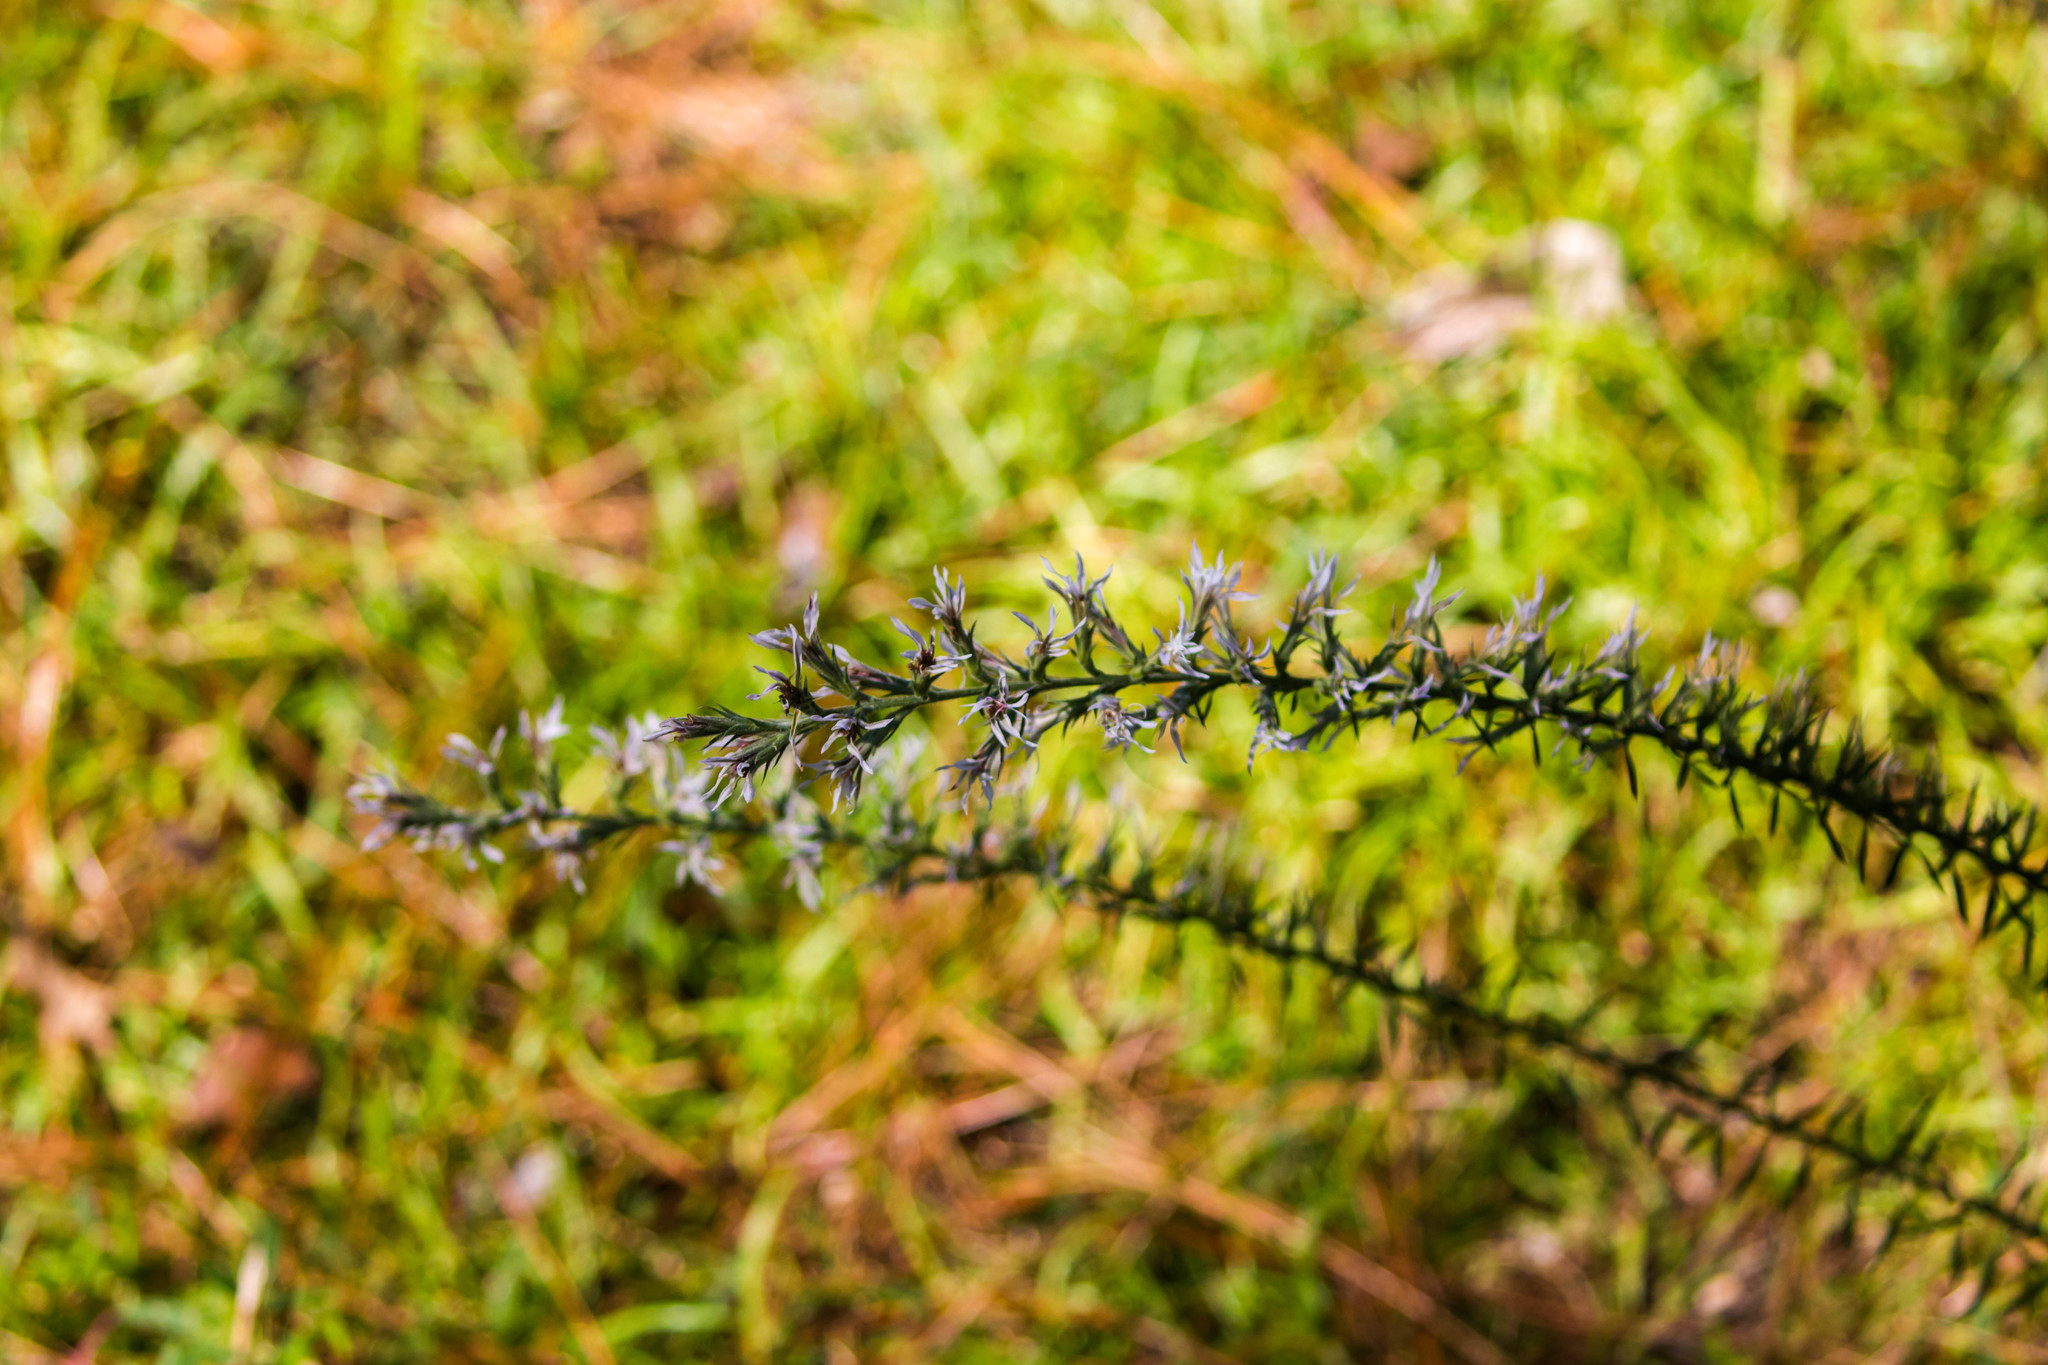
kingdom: Plantae
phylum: Tracheophyta
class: Magnoliopsida
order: Asterales
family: Asteraceae
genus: Liatris
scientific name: Liatris gracilis
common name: Slender gayfeather
